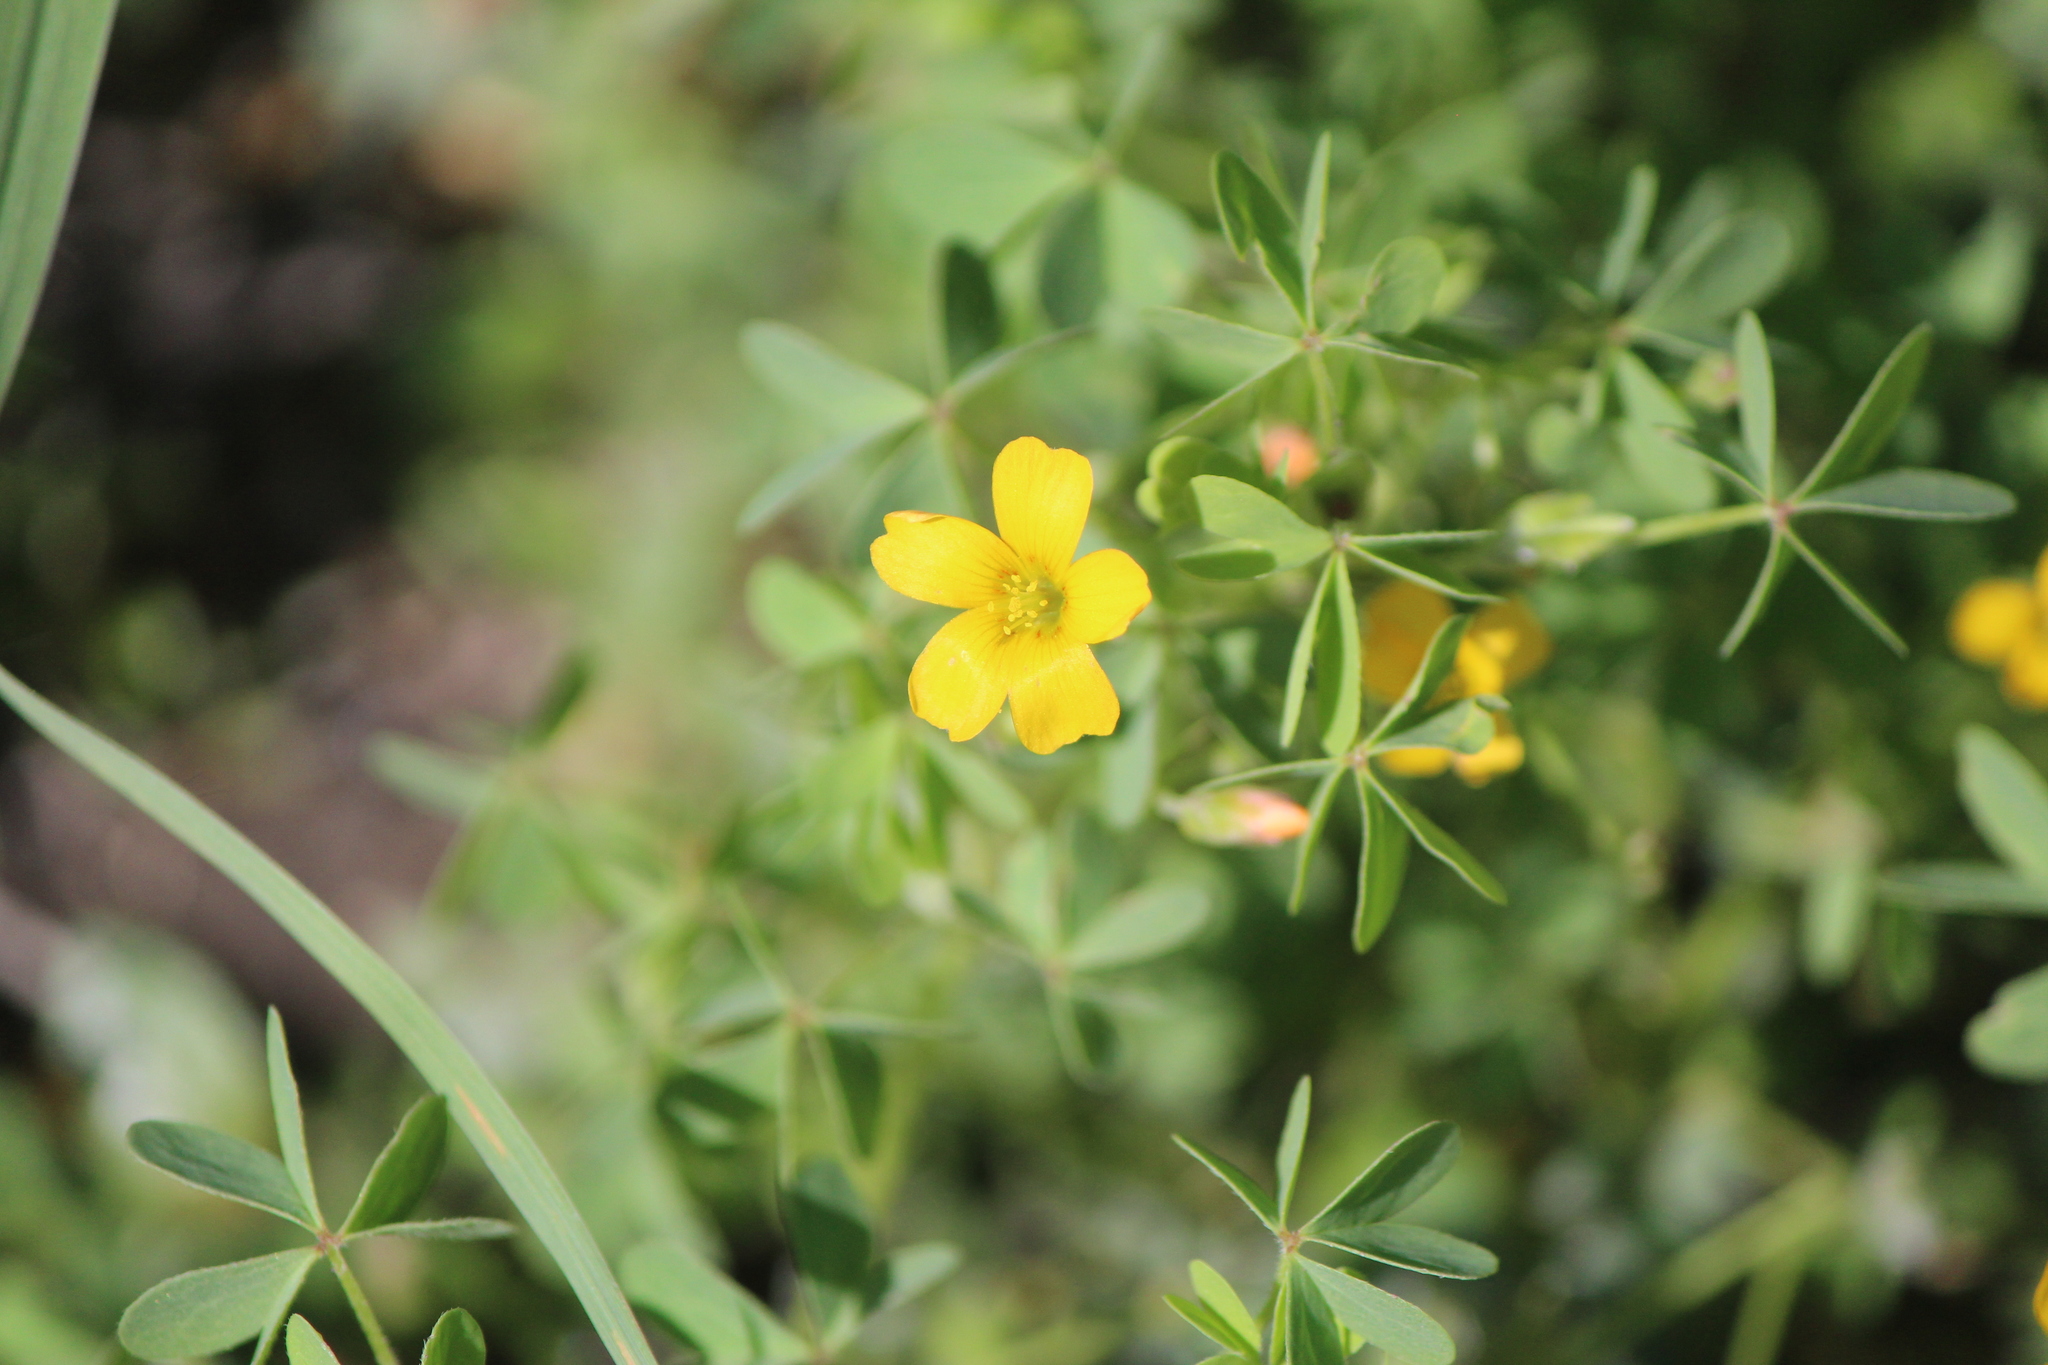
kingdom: Plantae
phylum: Tracheophyta
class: Magnoliopsida
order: Oxalidales
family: Oxalidaceae
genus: Oxalis
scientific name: Oxalis corniculata
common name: Procumbent yellow-sorrel
